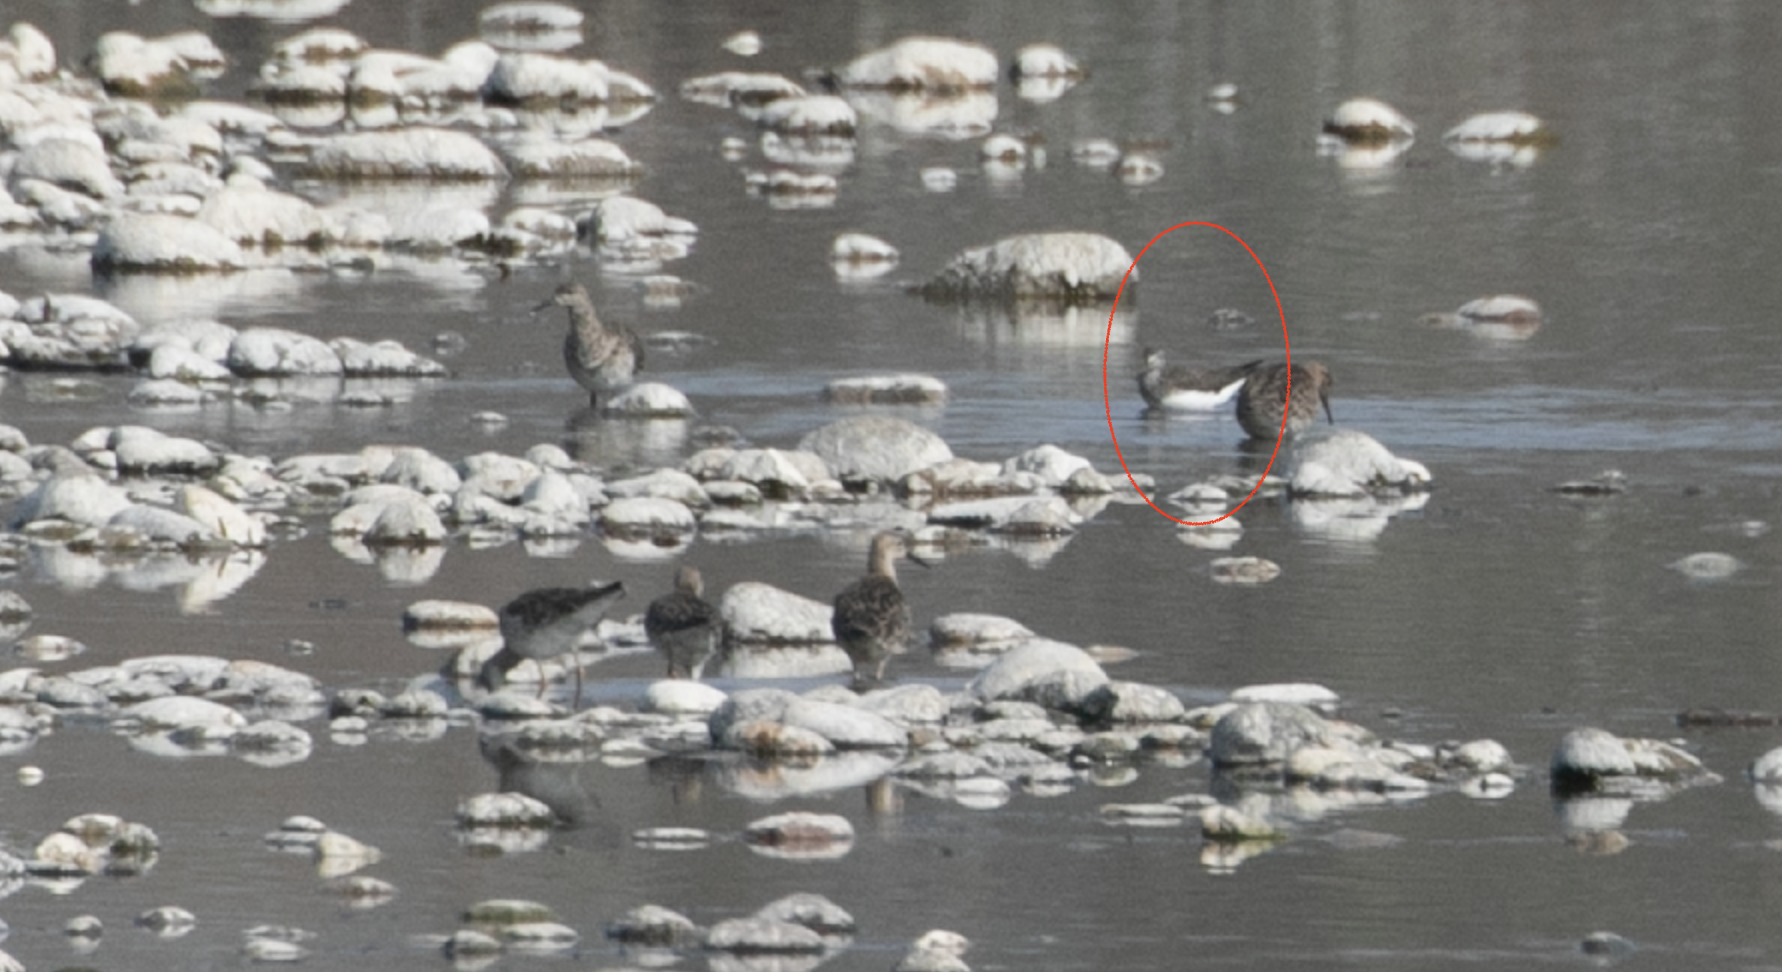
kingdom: Animalia
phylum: Chordata
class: Aves
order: Charadriiformes
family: Scolopacidae
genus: Tringa
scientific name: Tringa ochropus
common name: Green sandpiper
